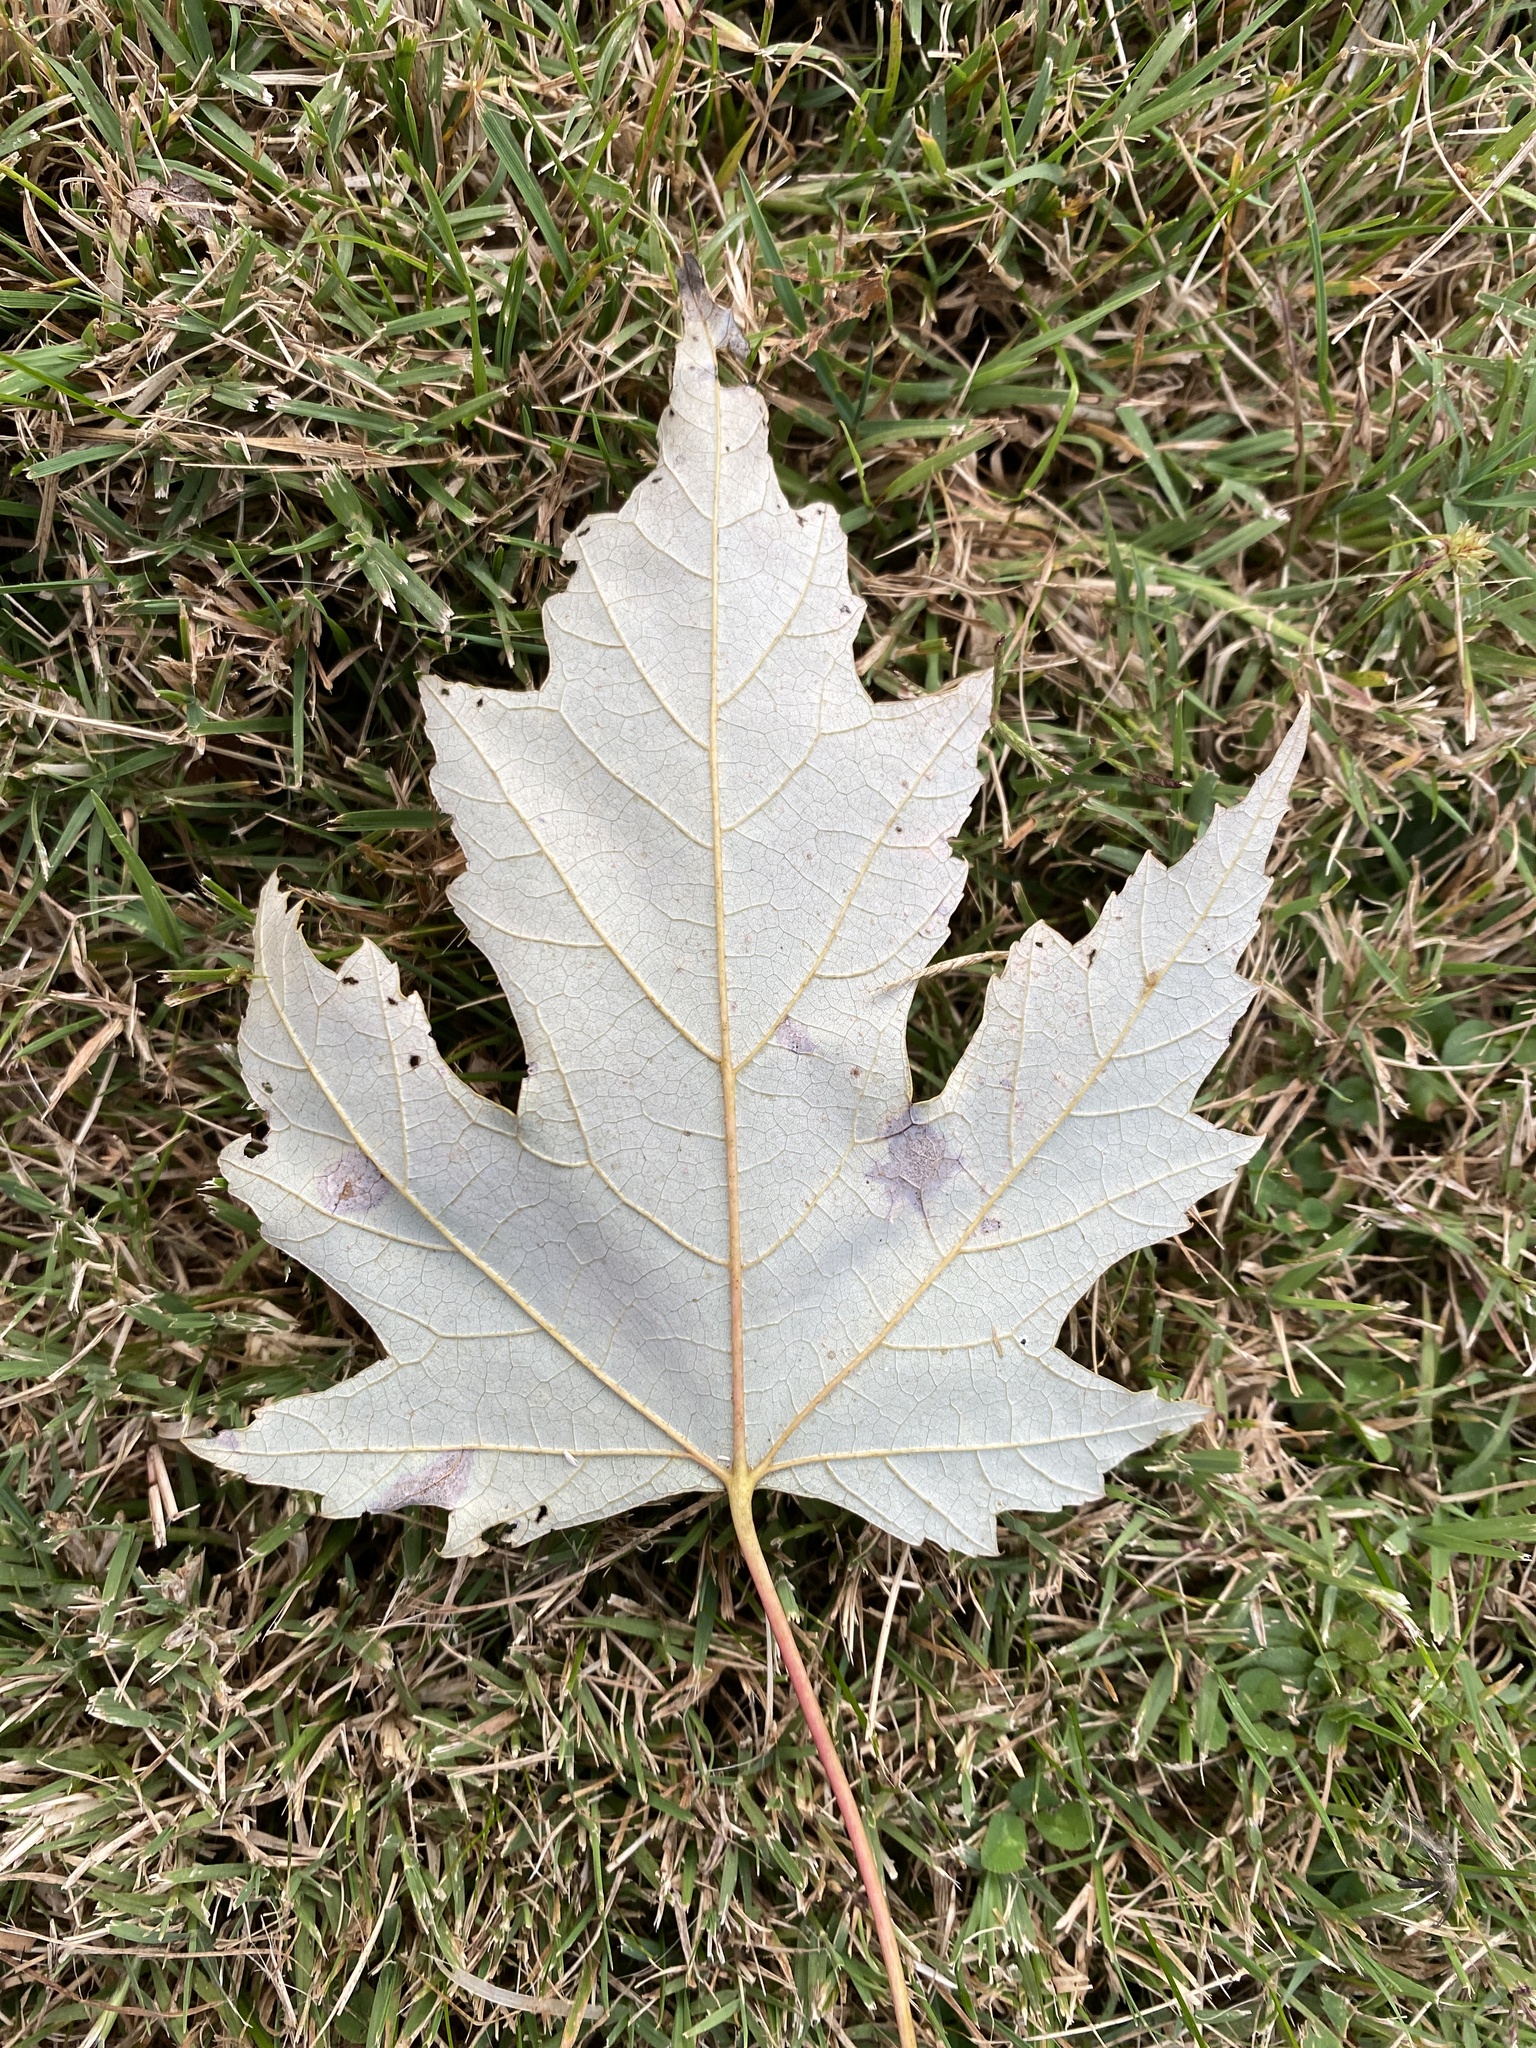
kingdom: Plantae
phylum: Tracheophyta
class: Magnoliopsida
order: Sapindales
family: Sapindaceae
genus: Acer
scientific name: Acer saccharinum
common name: Silver maple
